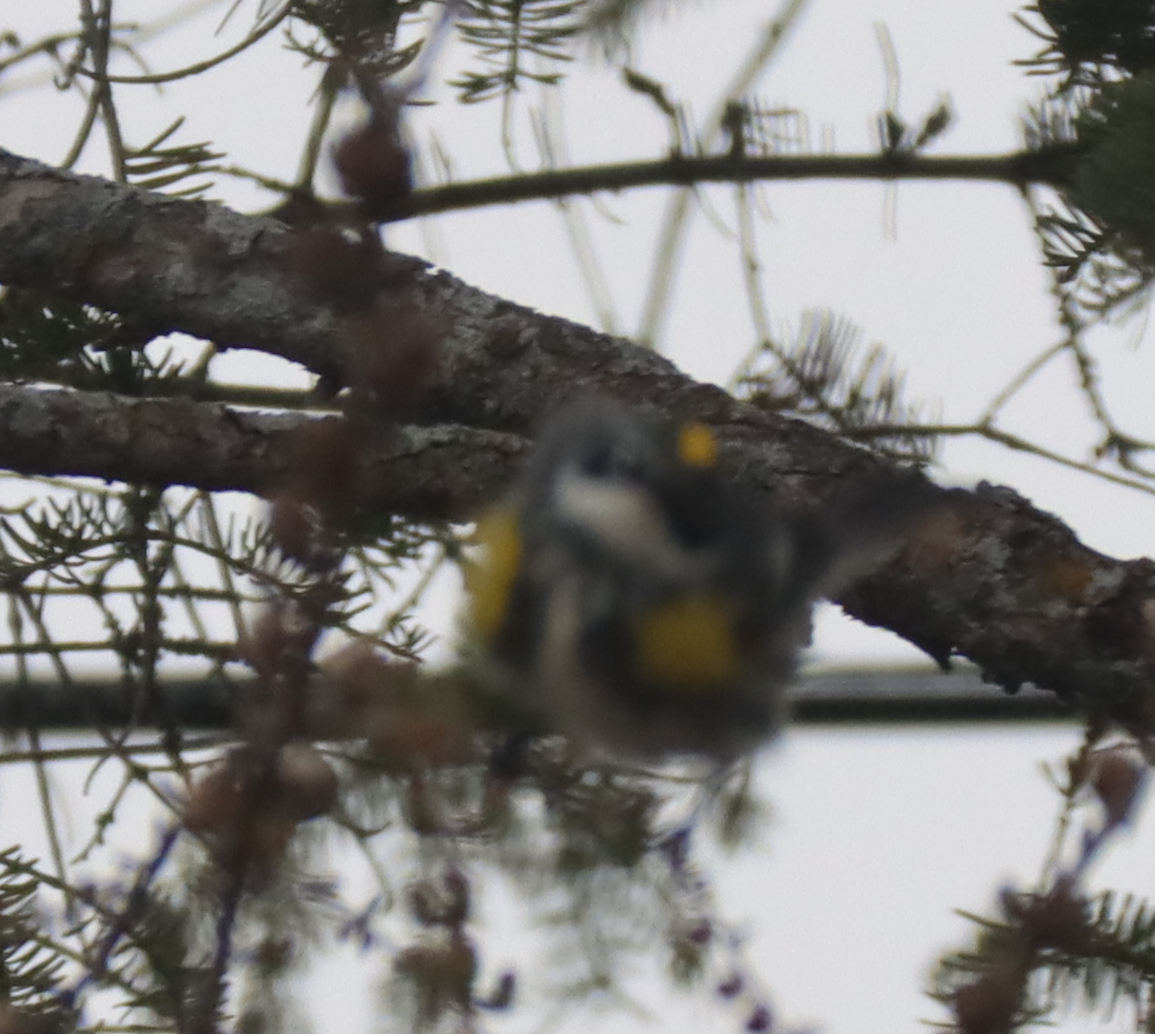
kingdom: Animalia
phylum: Chordata
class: Aves
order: Passeriformes
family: Parulidae
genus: Setophaga
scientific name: Setophaga coronata
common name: Myrtle warbler
